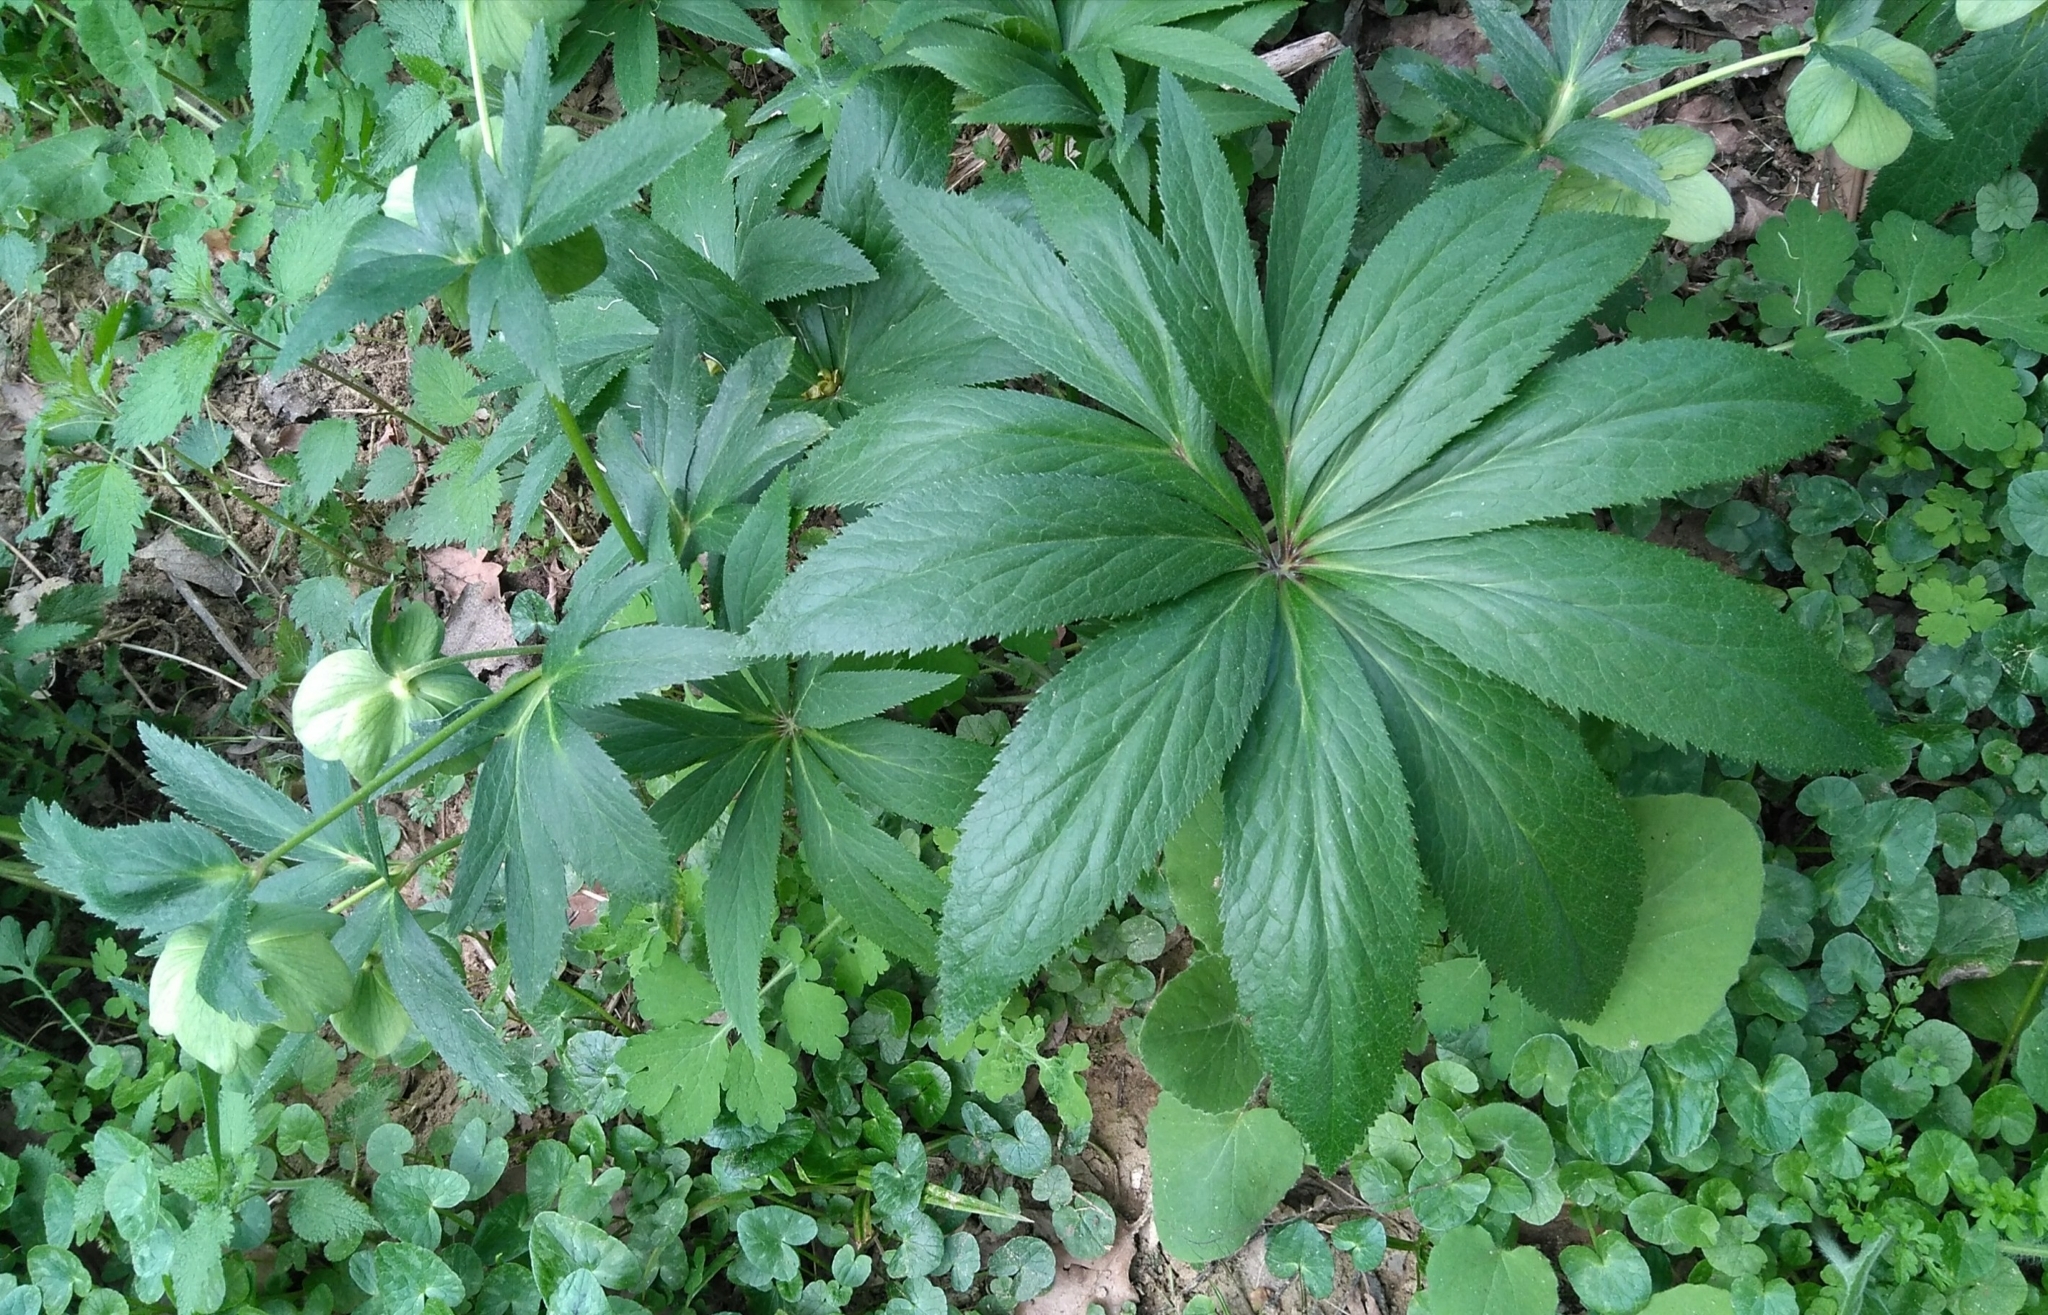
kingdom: Plantae
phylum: Tracheophyta
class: Magnoliopsida
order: Ranunculales
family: Ranunculaceae
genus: Helleborus
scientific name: Helleborus viridis
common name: Green hellebore
